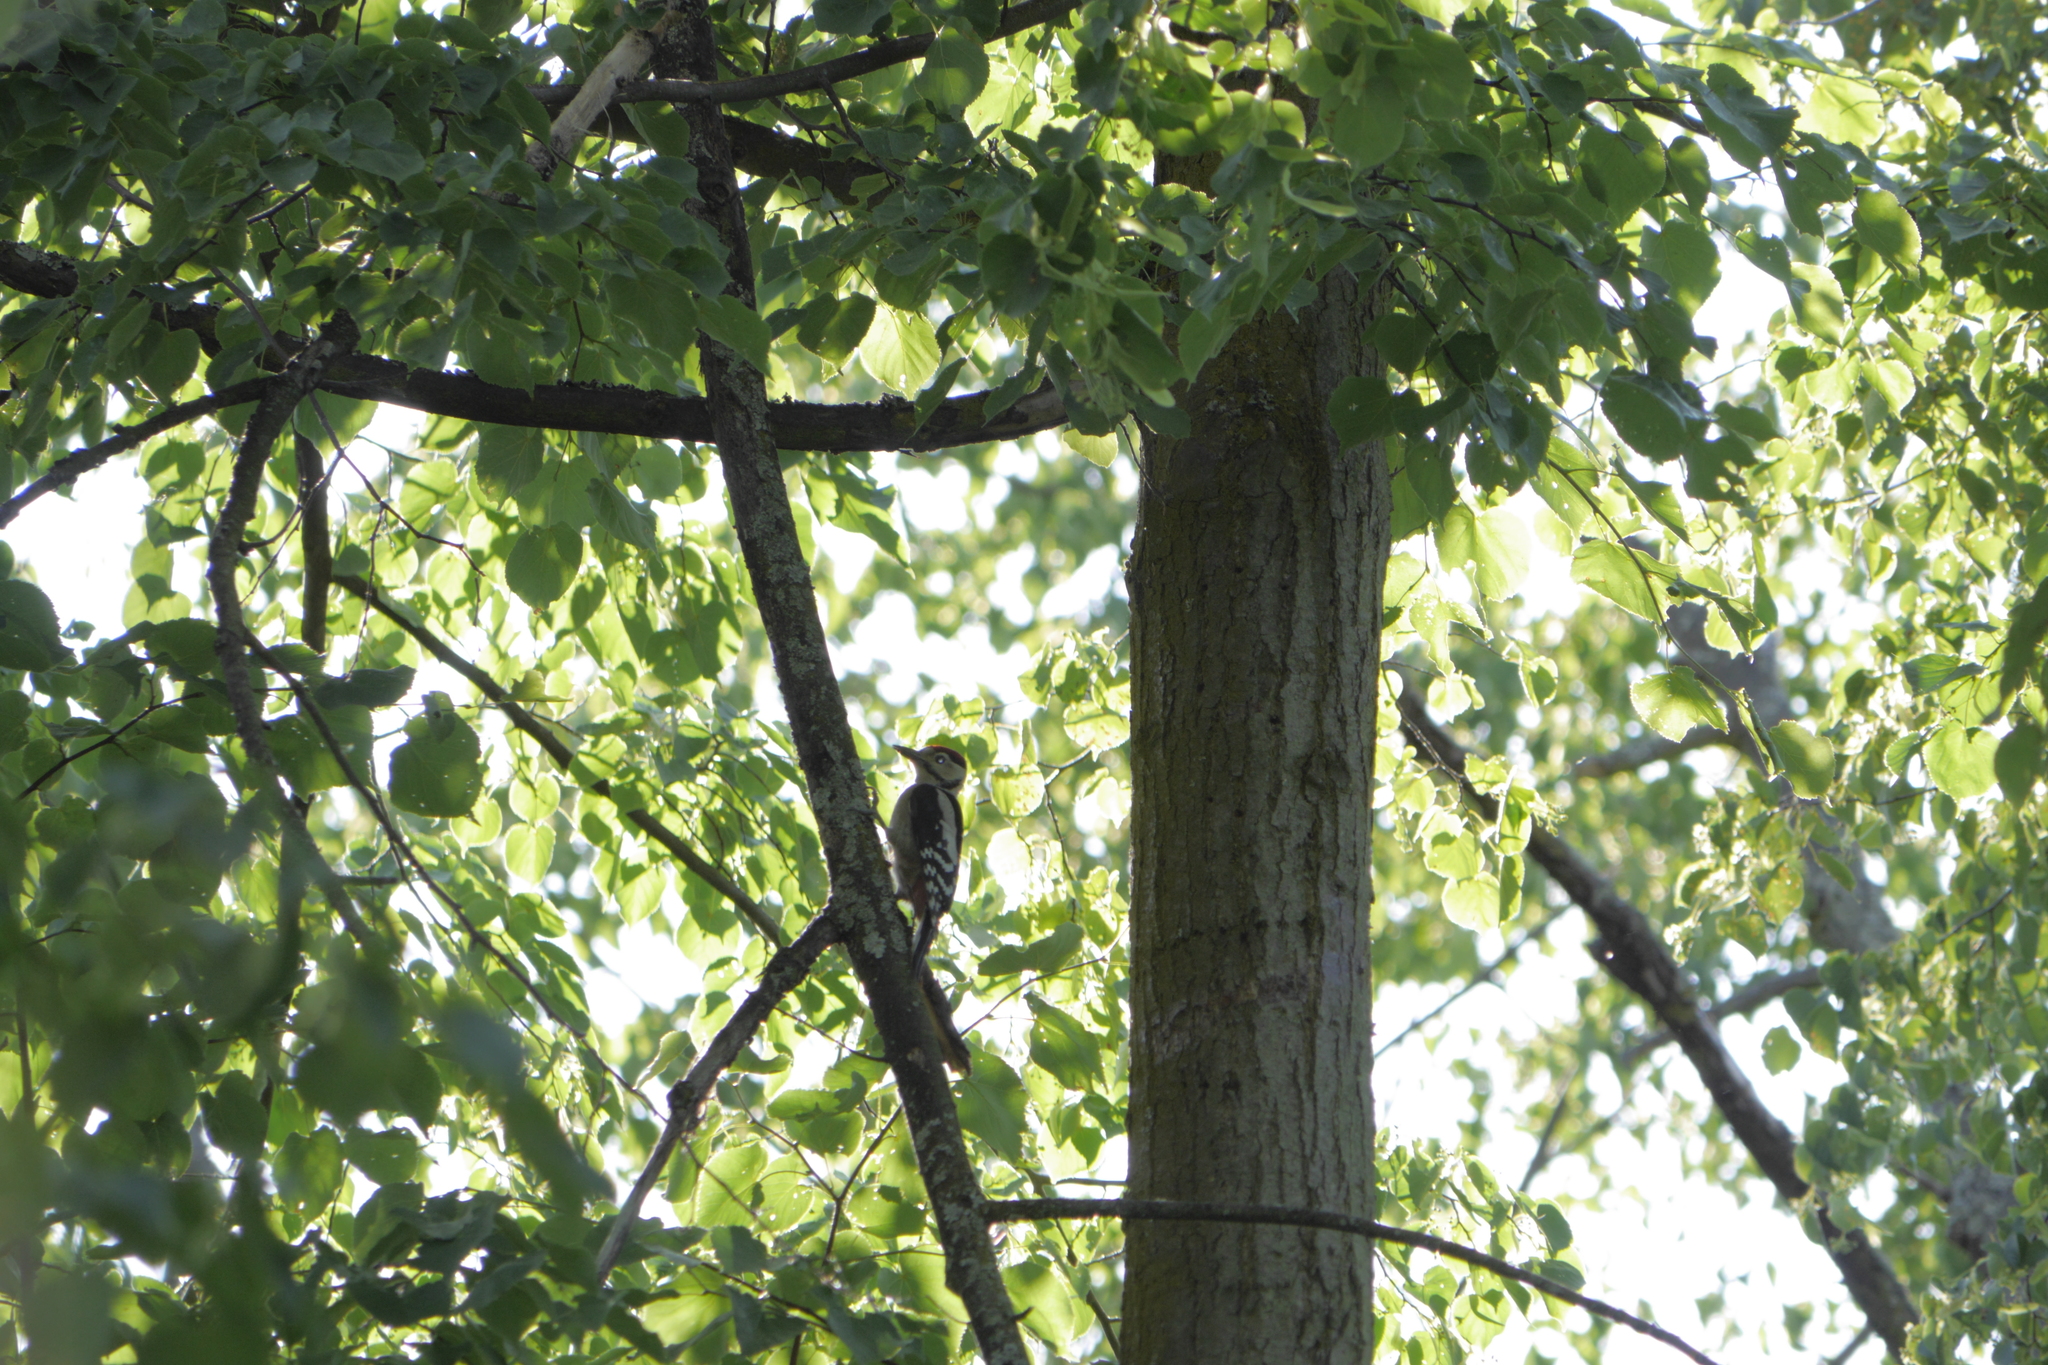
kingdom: Animalia
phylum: Chordata
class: Aves
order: Piciformes
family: Picidae
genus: Dendrocopos
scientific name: Dendrocopos major
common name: Great spotted woodpecker
